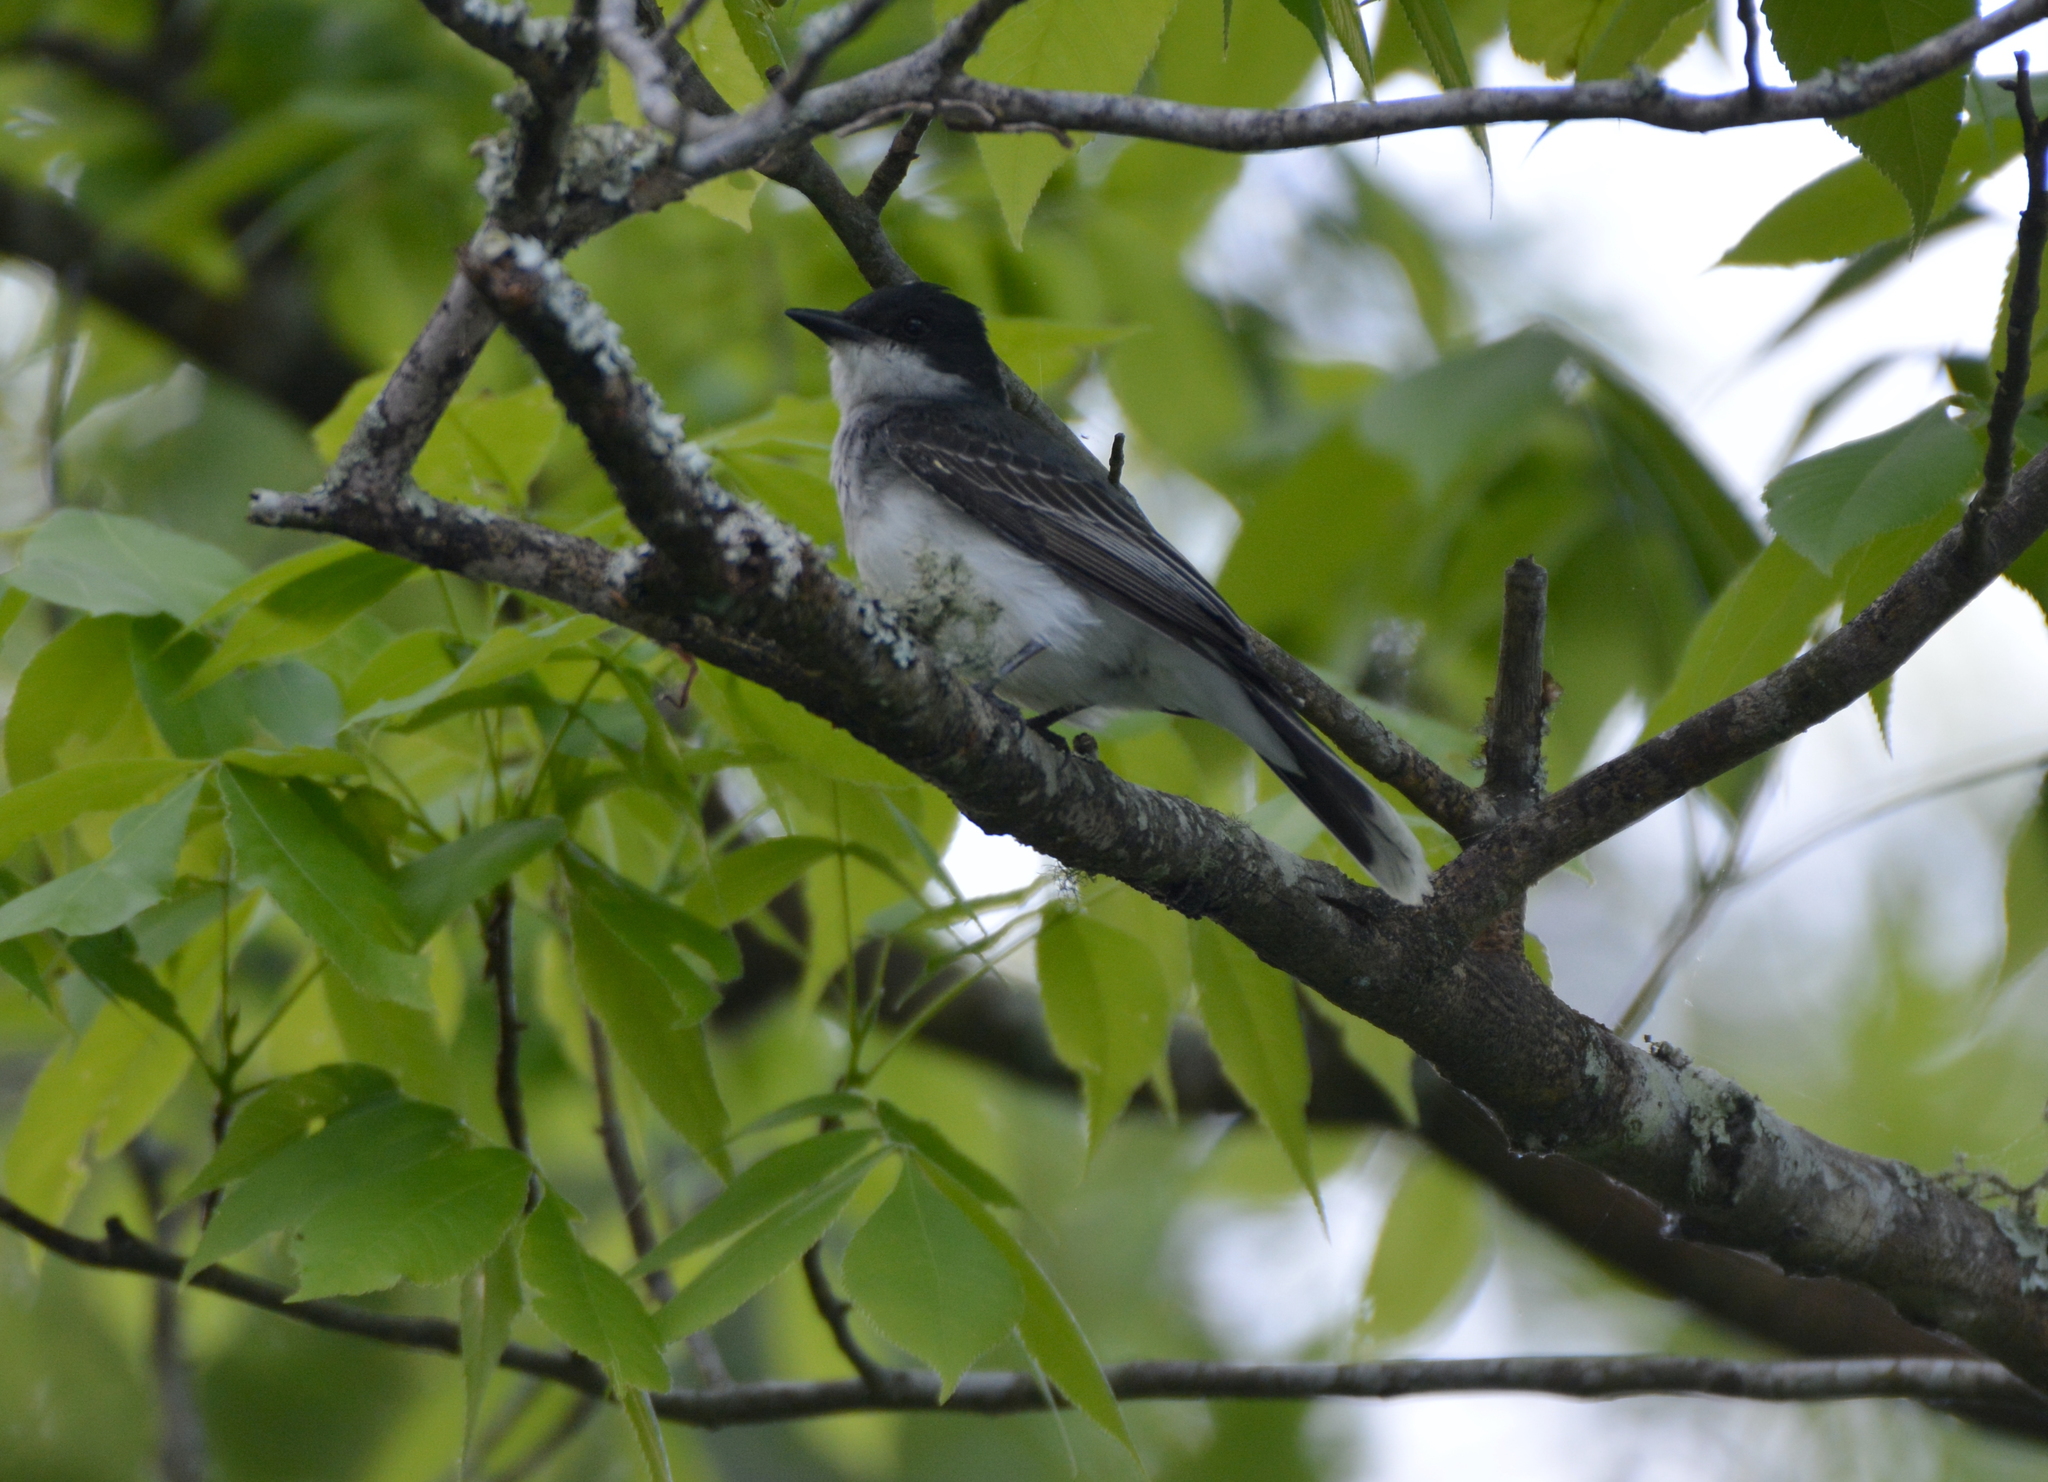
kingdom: Animalia
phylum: Chordata
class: Aves
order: Passeriformes
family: Tyrannidae
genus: Tyrannus
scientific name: Tyrannus tyrannus
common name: Eastern kingbird
